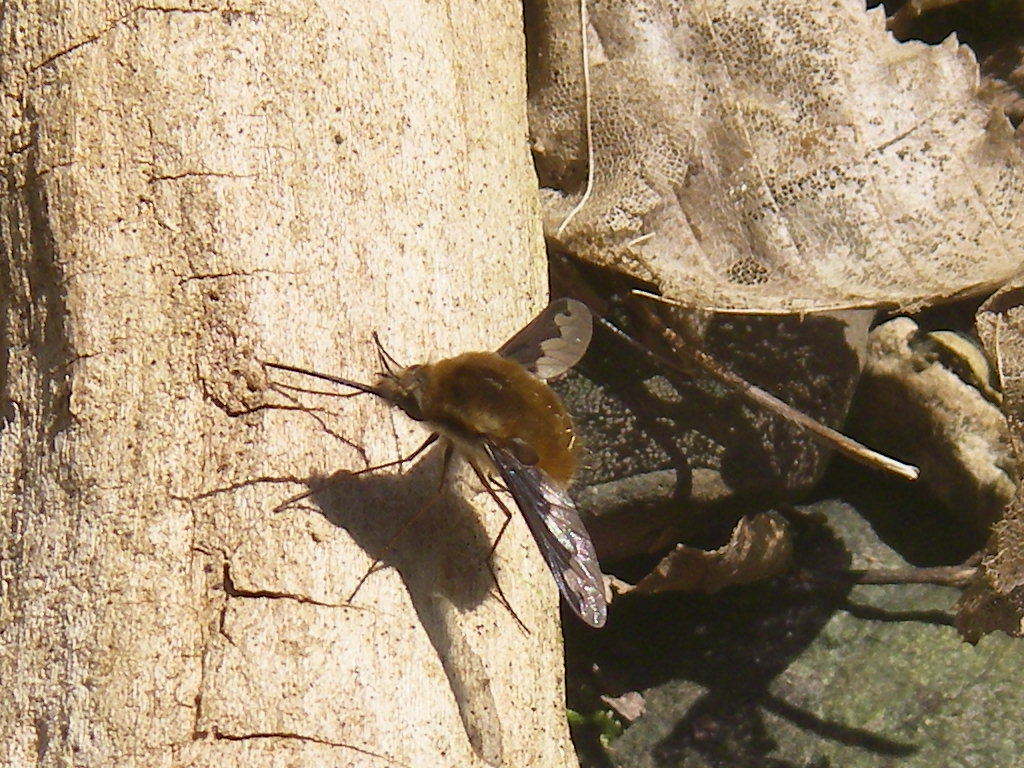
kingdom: Animalia
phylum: Arthropoda
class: Insecta
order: Diptera
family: Bombyliidae
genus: Bombylius
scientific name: Bombylius major
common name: Bee fly
